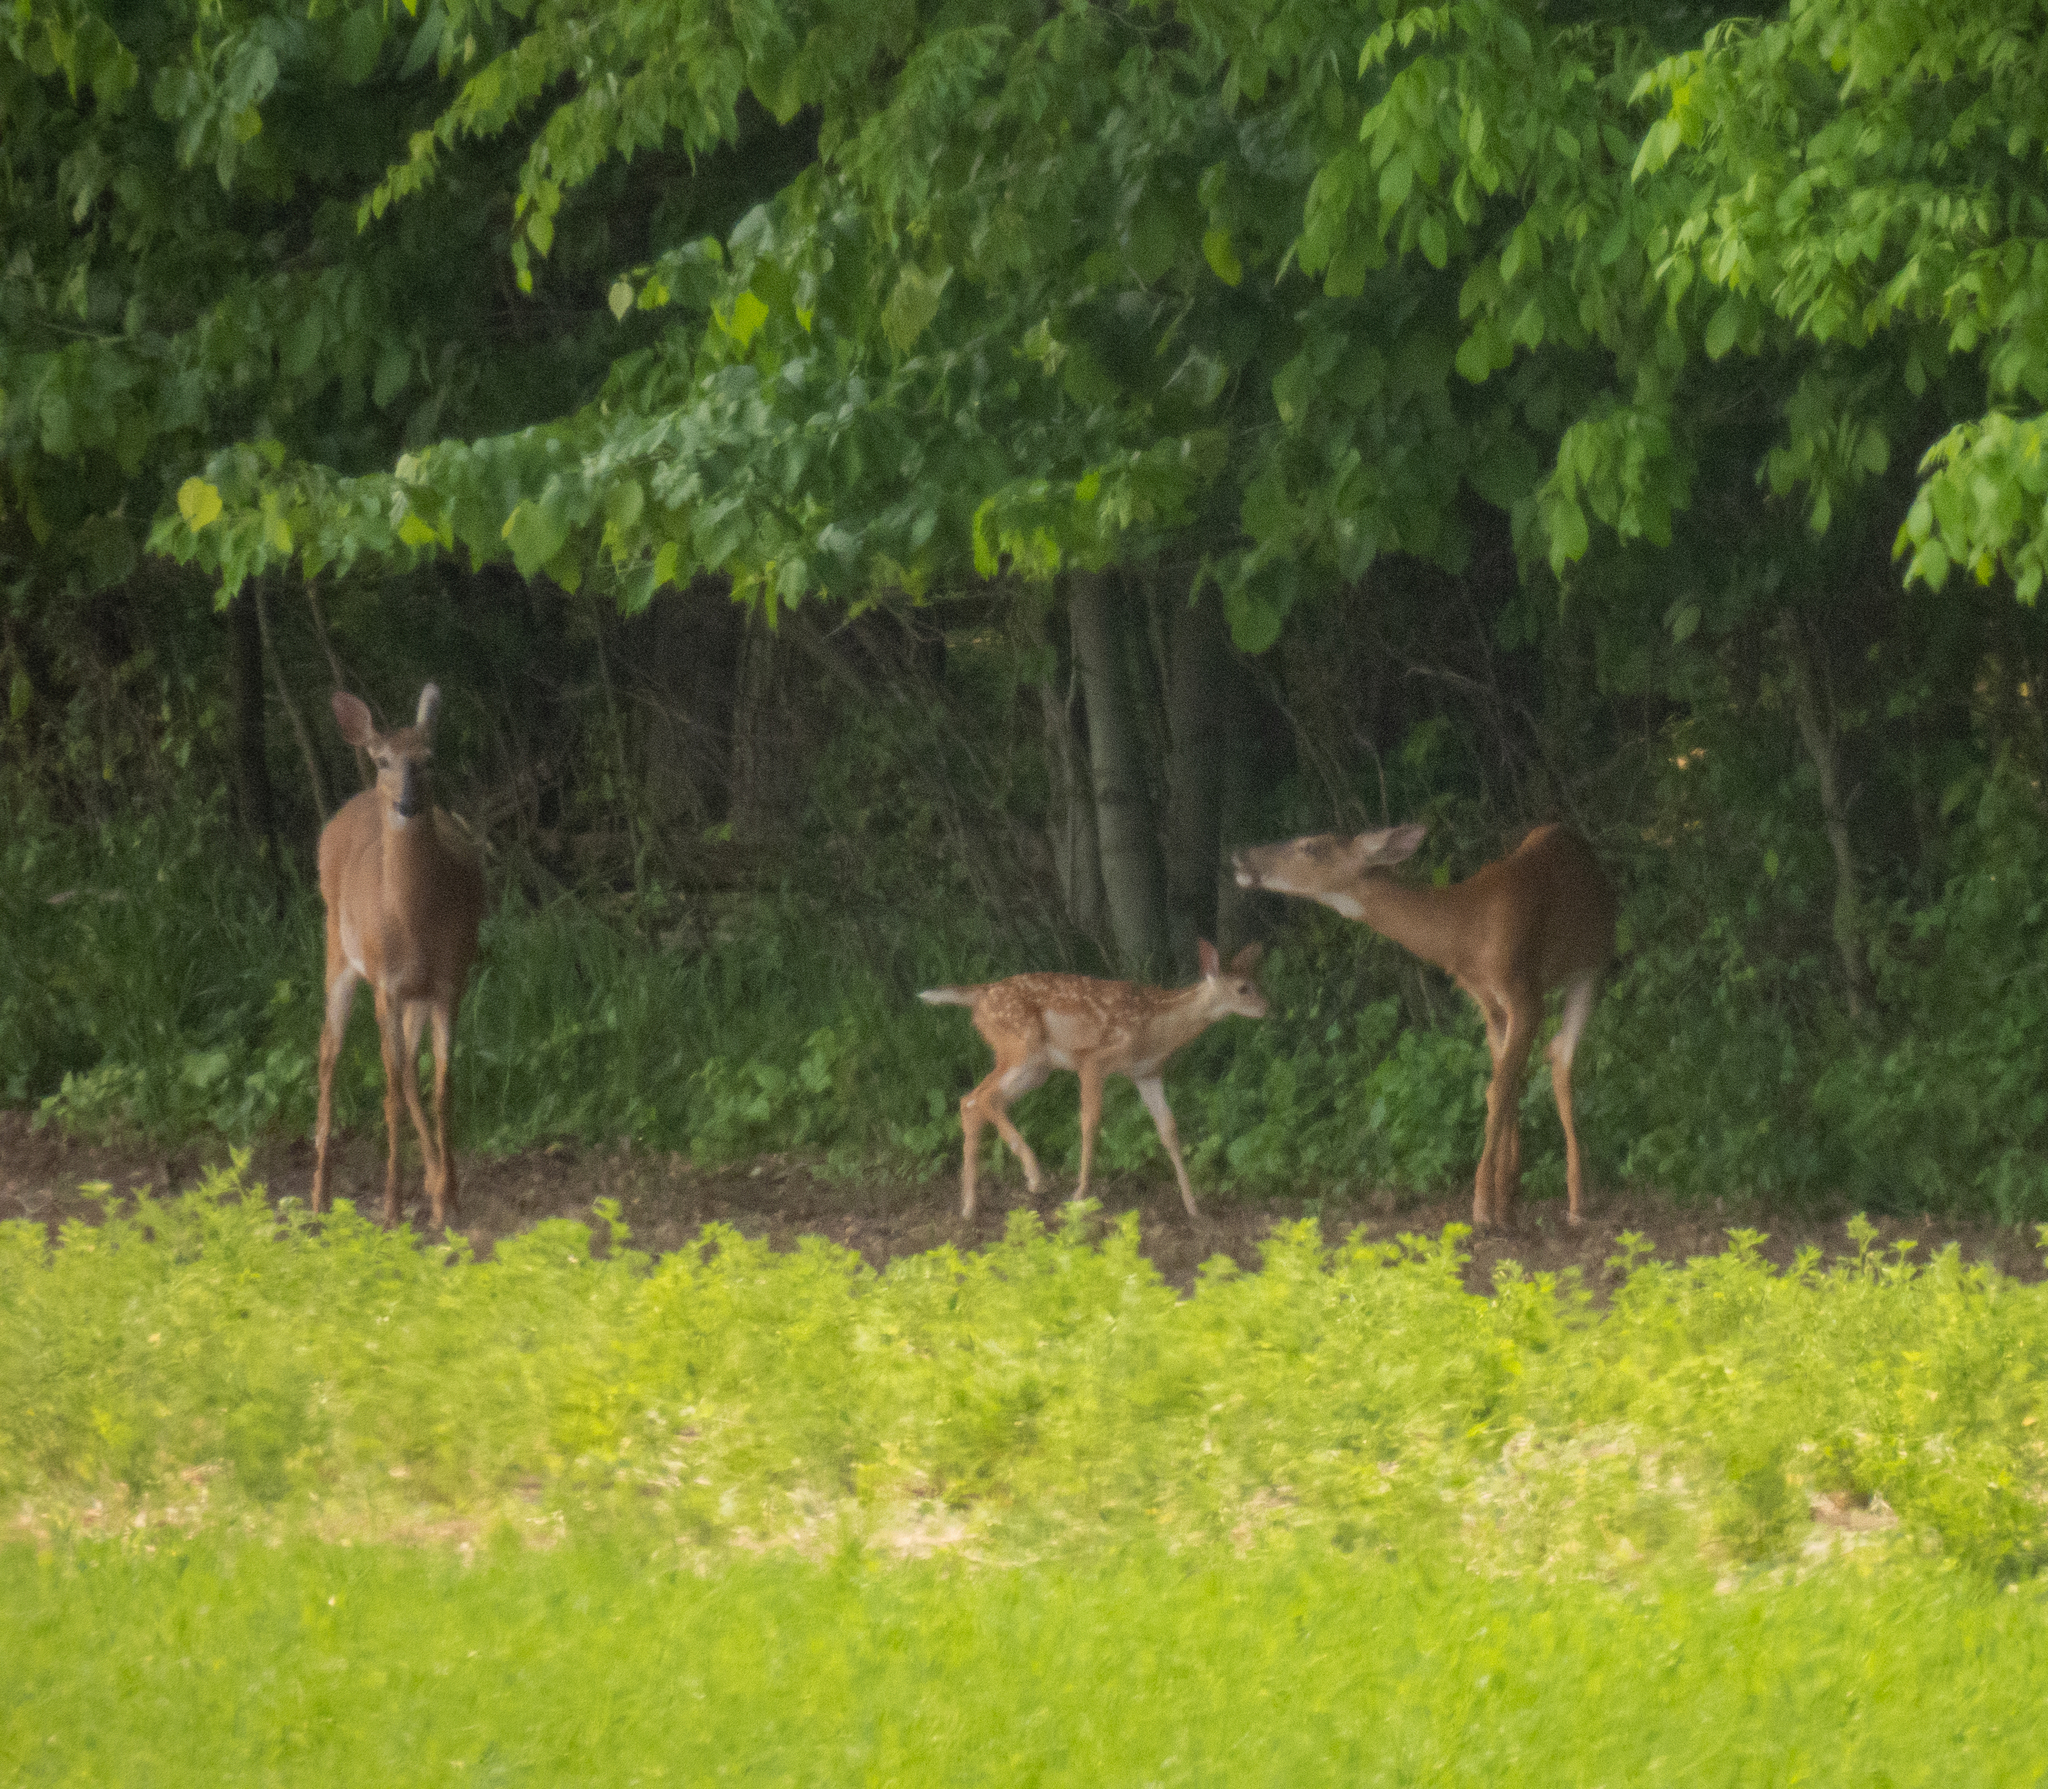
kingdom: Animalia
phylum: Chordata
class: Mammalia
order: Artiodactyla
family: Cervidae
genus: Odocoileus
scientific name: Odocoileus virginianus
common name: White-tailed deer
